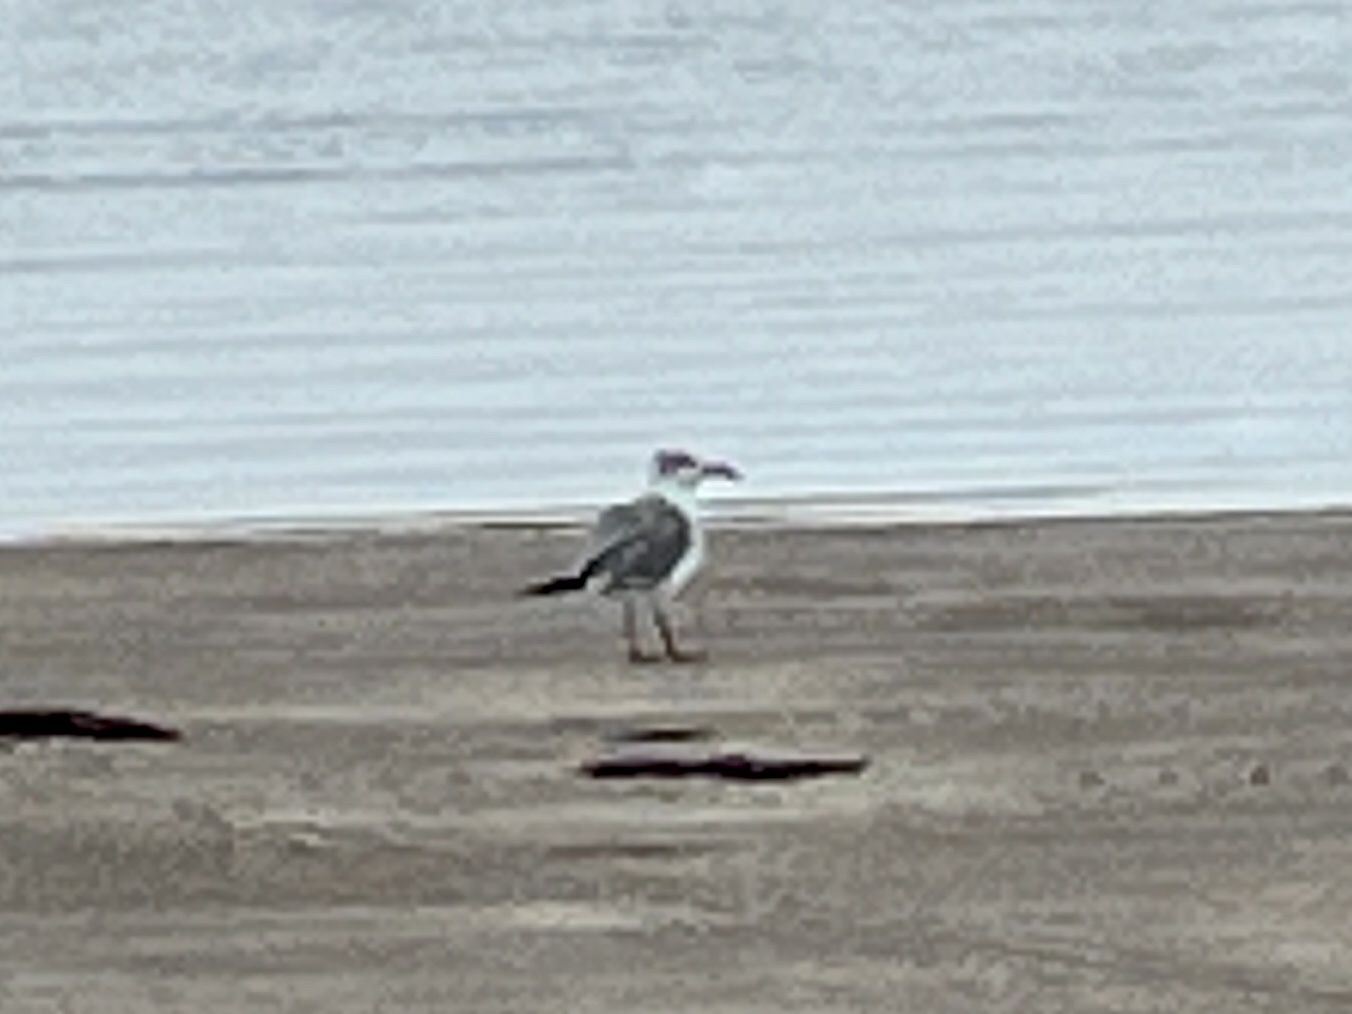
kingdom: Animalia
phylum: Chordata
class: Aves
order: Charadriiformes
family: Laridae
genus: Leucophaeus
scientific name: Leucophaeus atricilla
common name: Laughing gull
